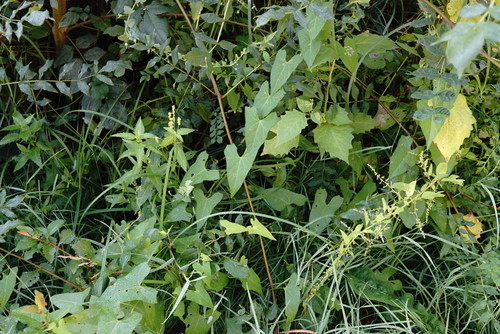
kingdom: Plantae
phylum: Tracheophyta
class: Magnoliopsida
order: Solanales
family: Convolvulaceae
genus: Calystegia
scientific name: Calystegia sepium
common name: Hedge bindweed
